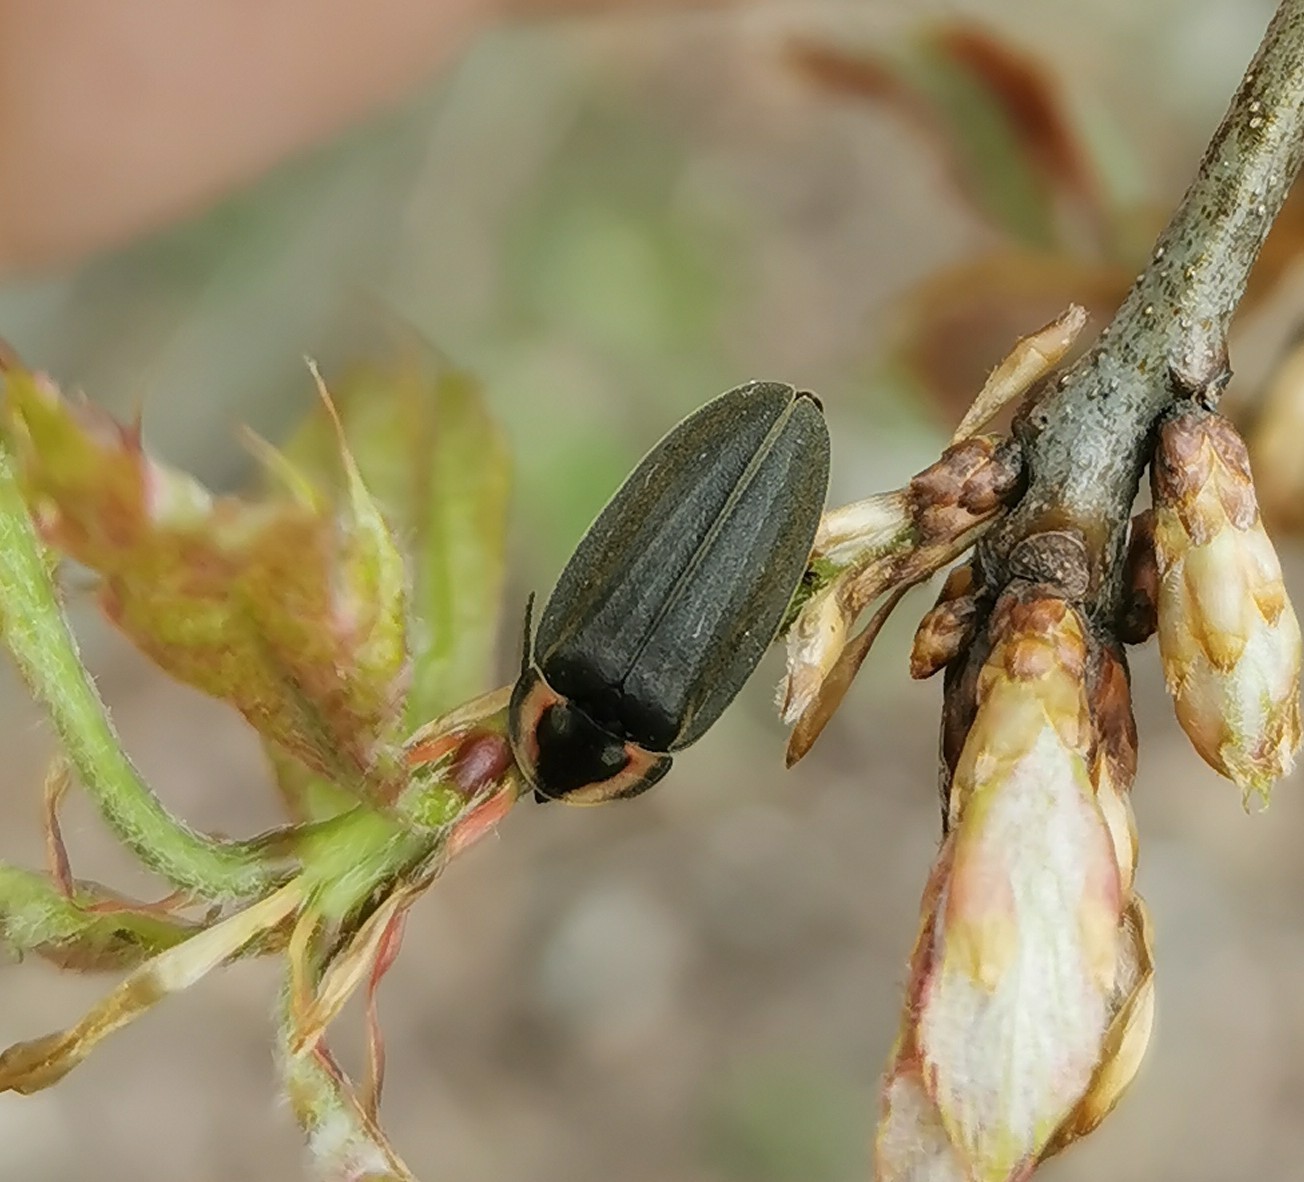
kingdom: Animalia
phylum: Arthropoda
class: Insecta
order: Coleoptera
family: Lampyridae
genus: Photinus
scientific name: Photinus corrusca
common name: Winter firefly
